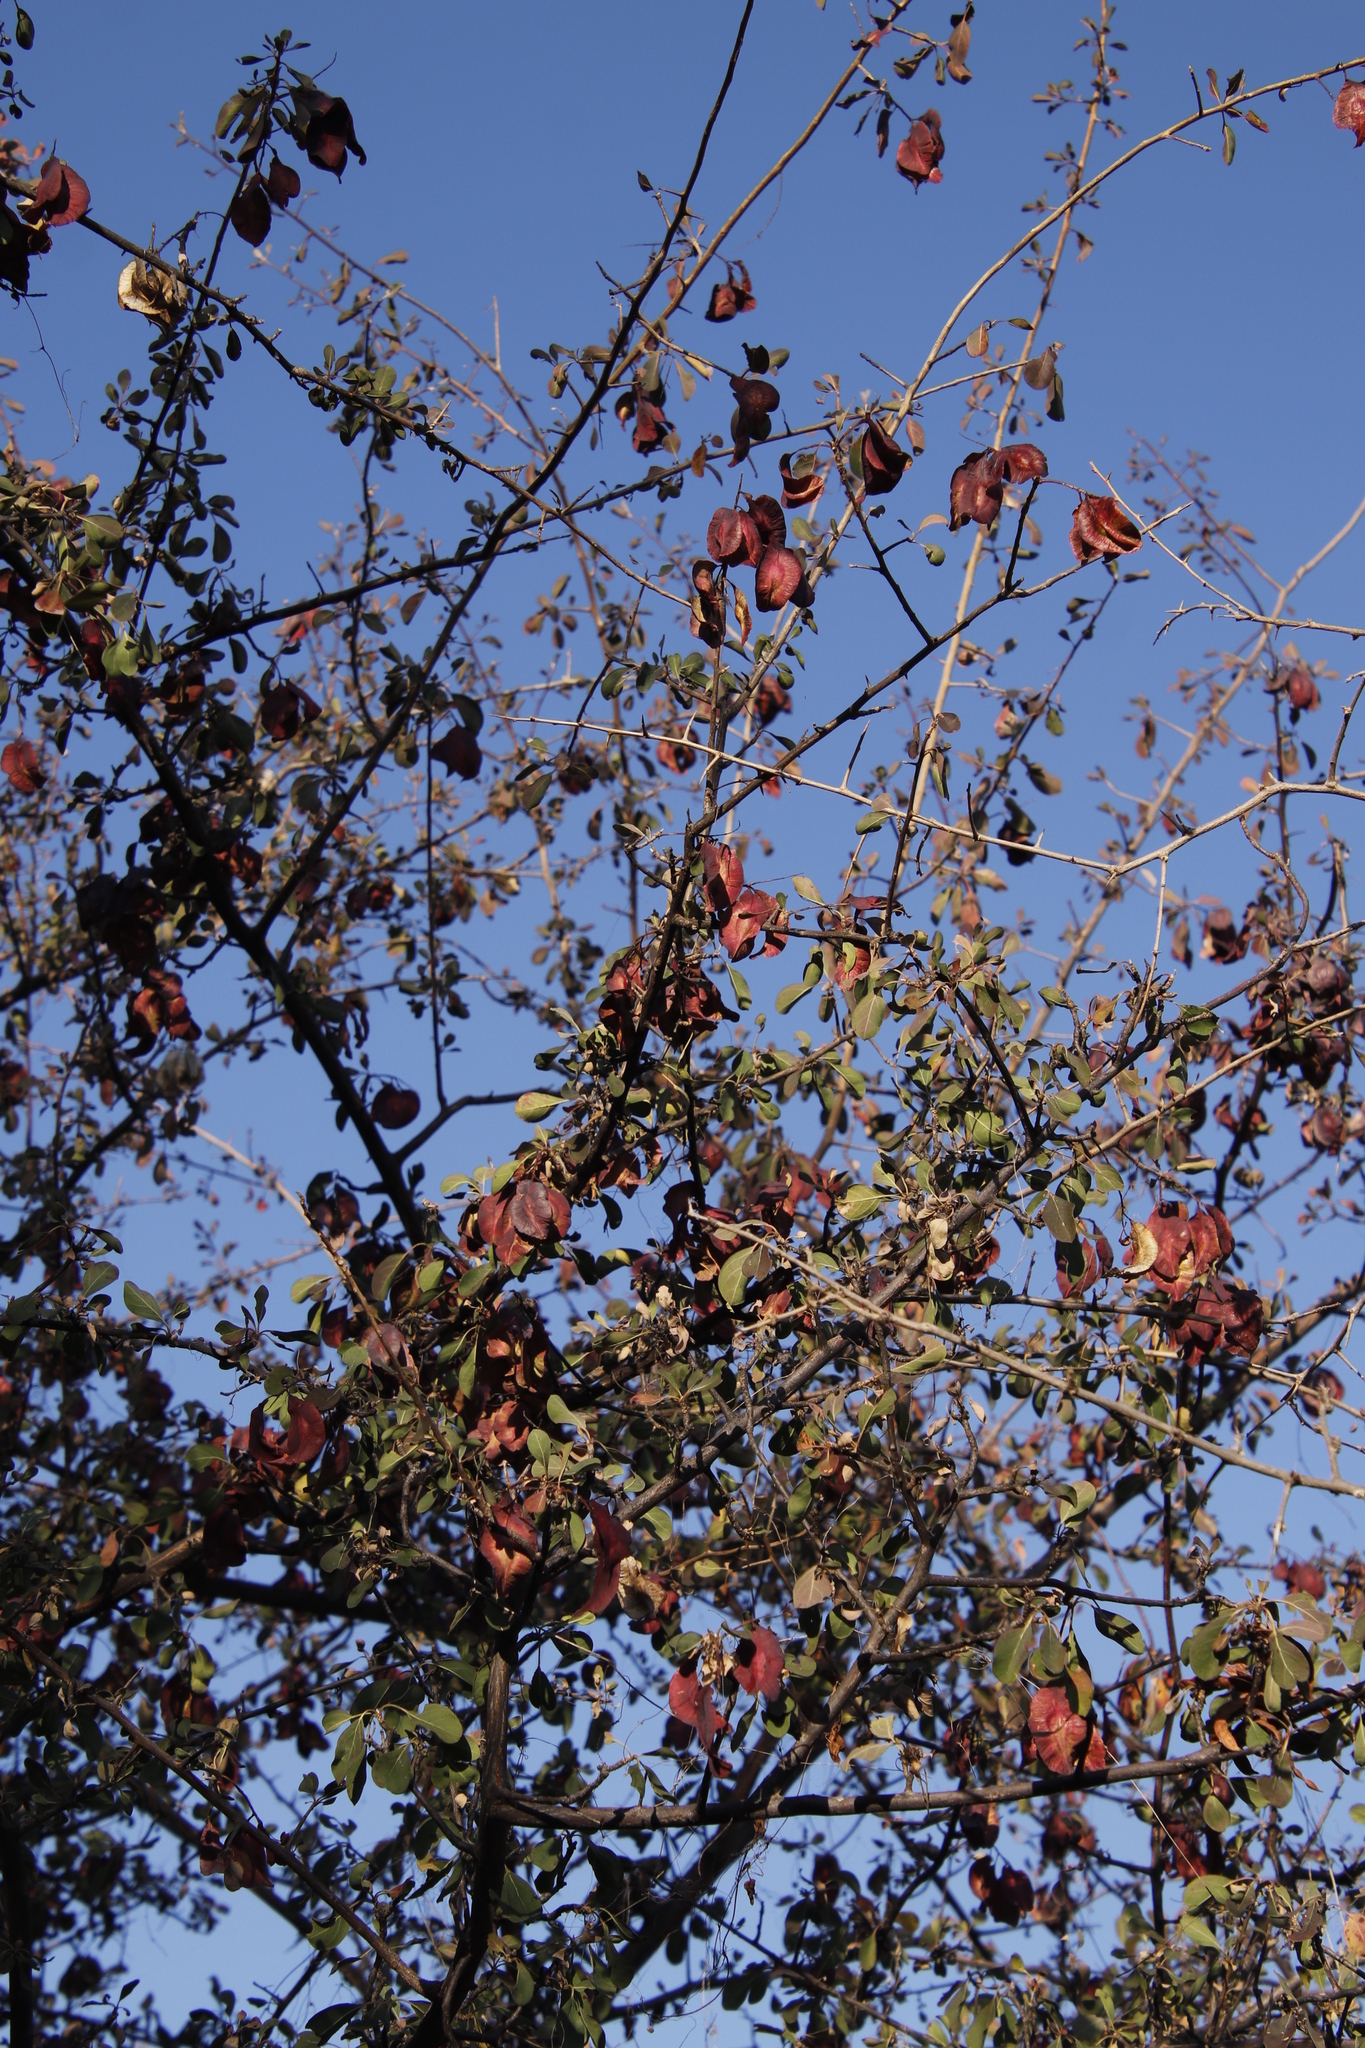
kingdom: Plantae
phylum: Tracheophyta
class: Magnoliopsida
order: Myrtales
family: Combretaceae
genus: Terminalia
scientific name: Terminalia prunioides
